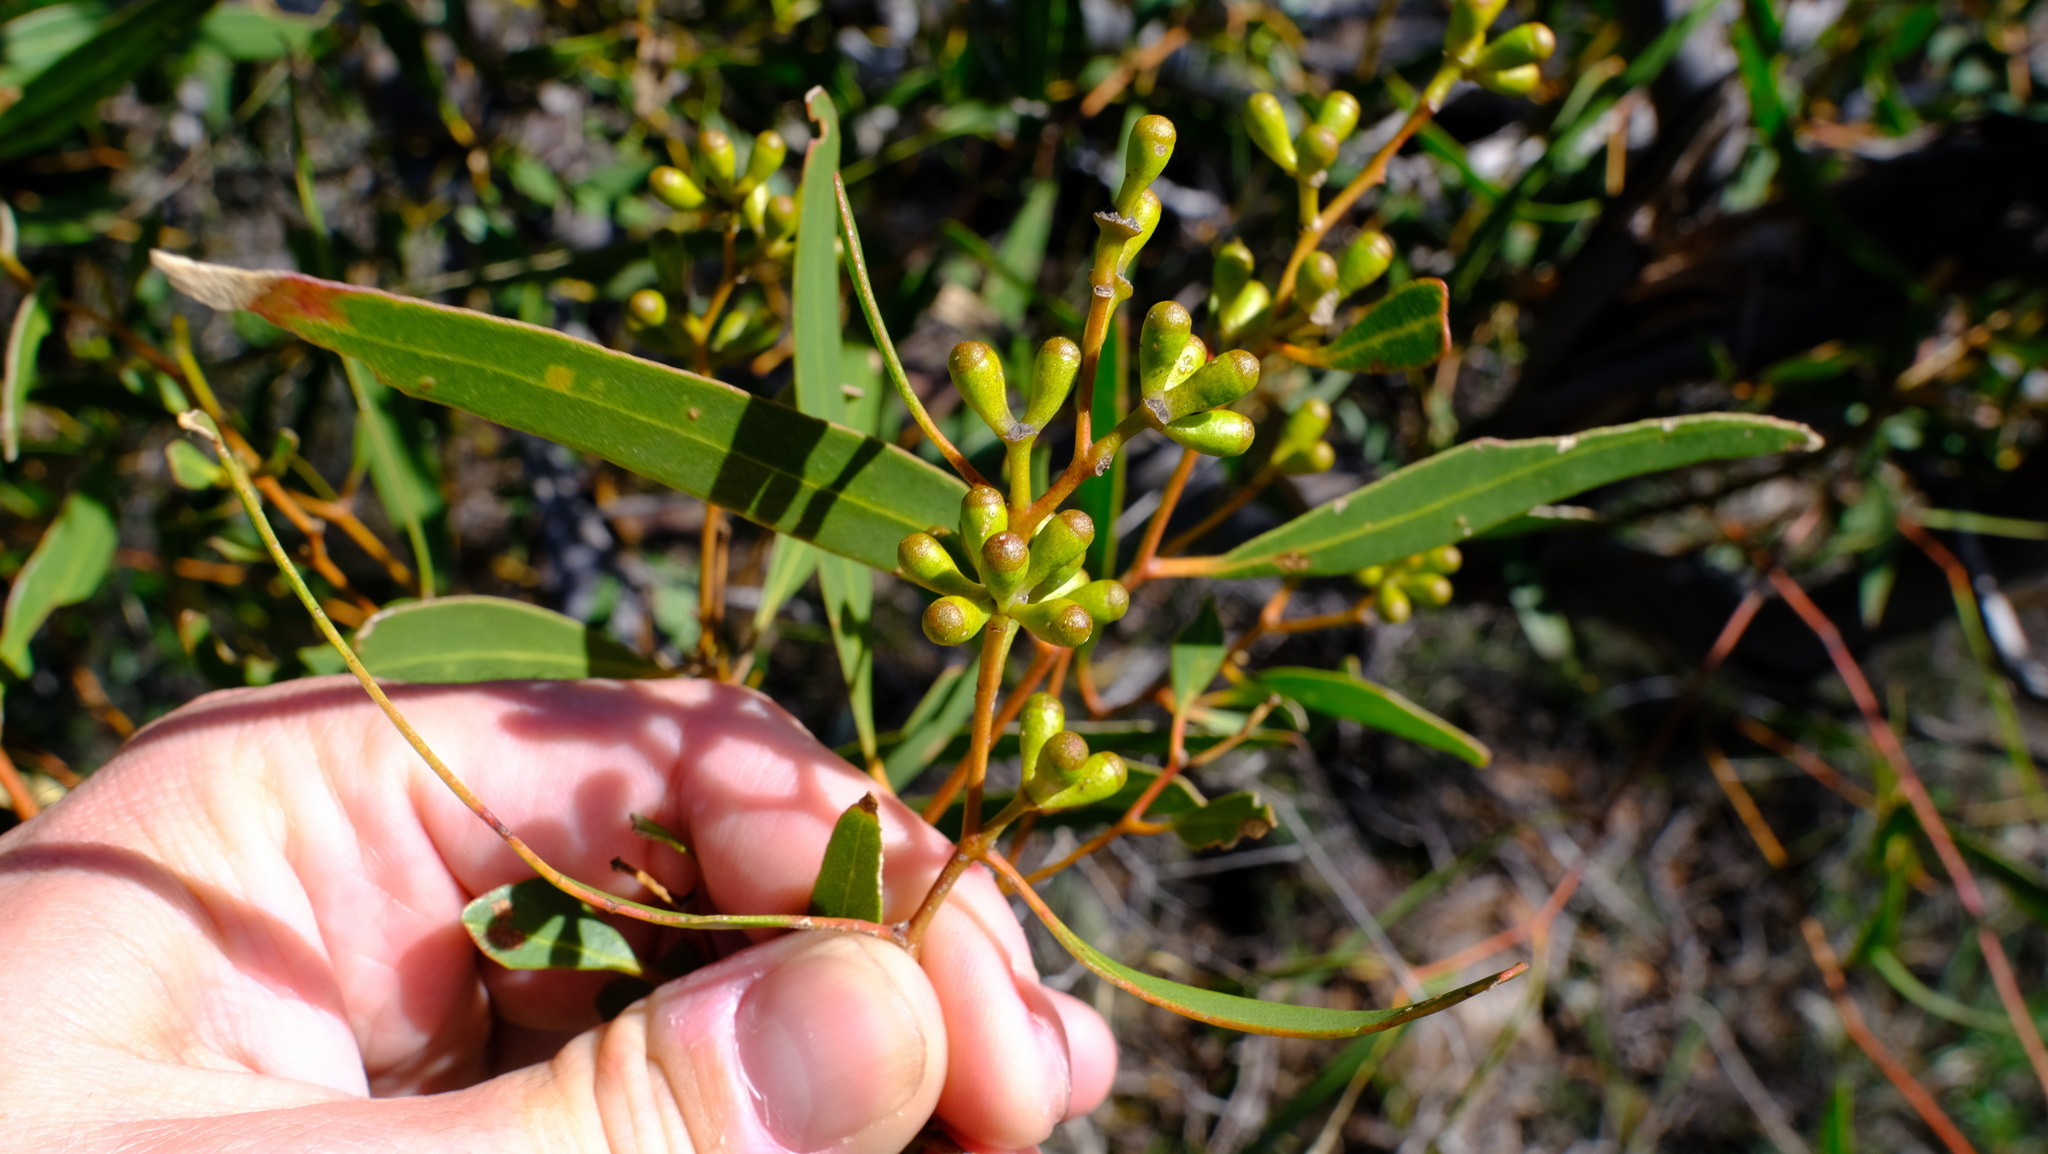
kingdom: Plantae
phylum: Tracheophyta
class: Magnoliopsida
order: Myrtales
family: Myrtaceae
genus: Eucalyptus
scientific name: Eucalyptus blaxellii
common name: Howatharra mallee
